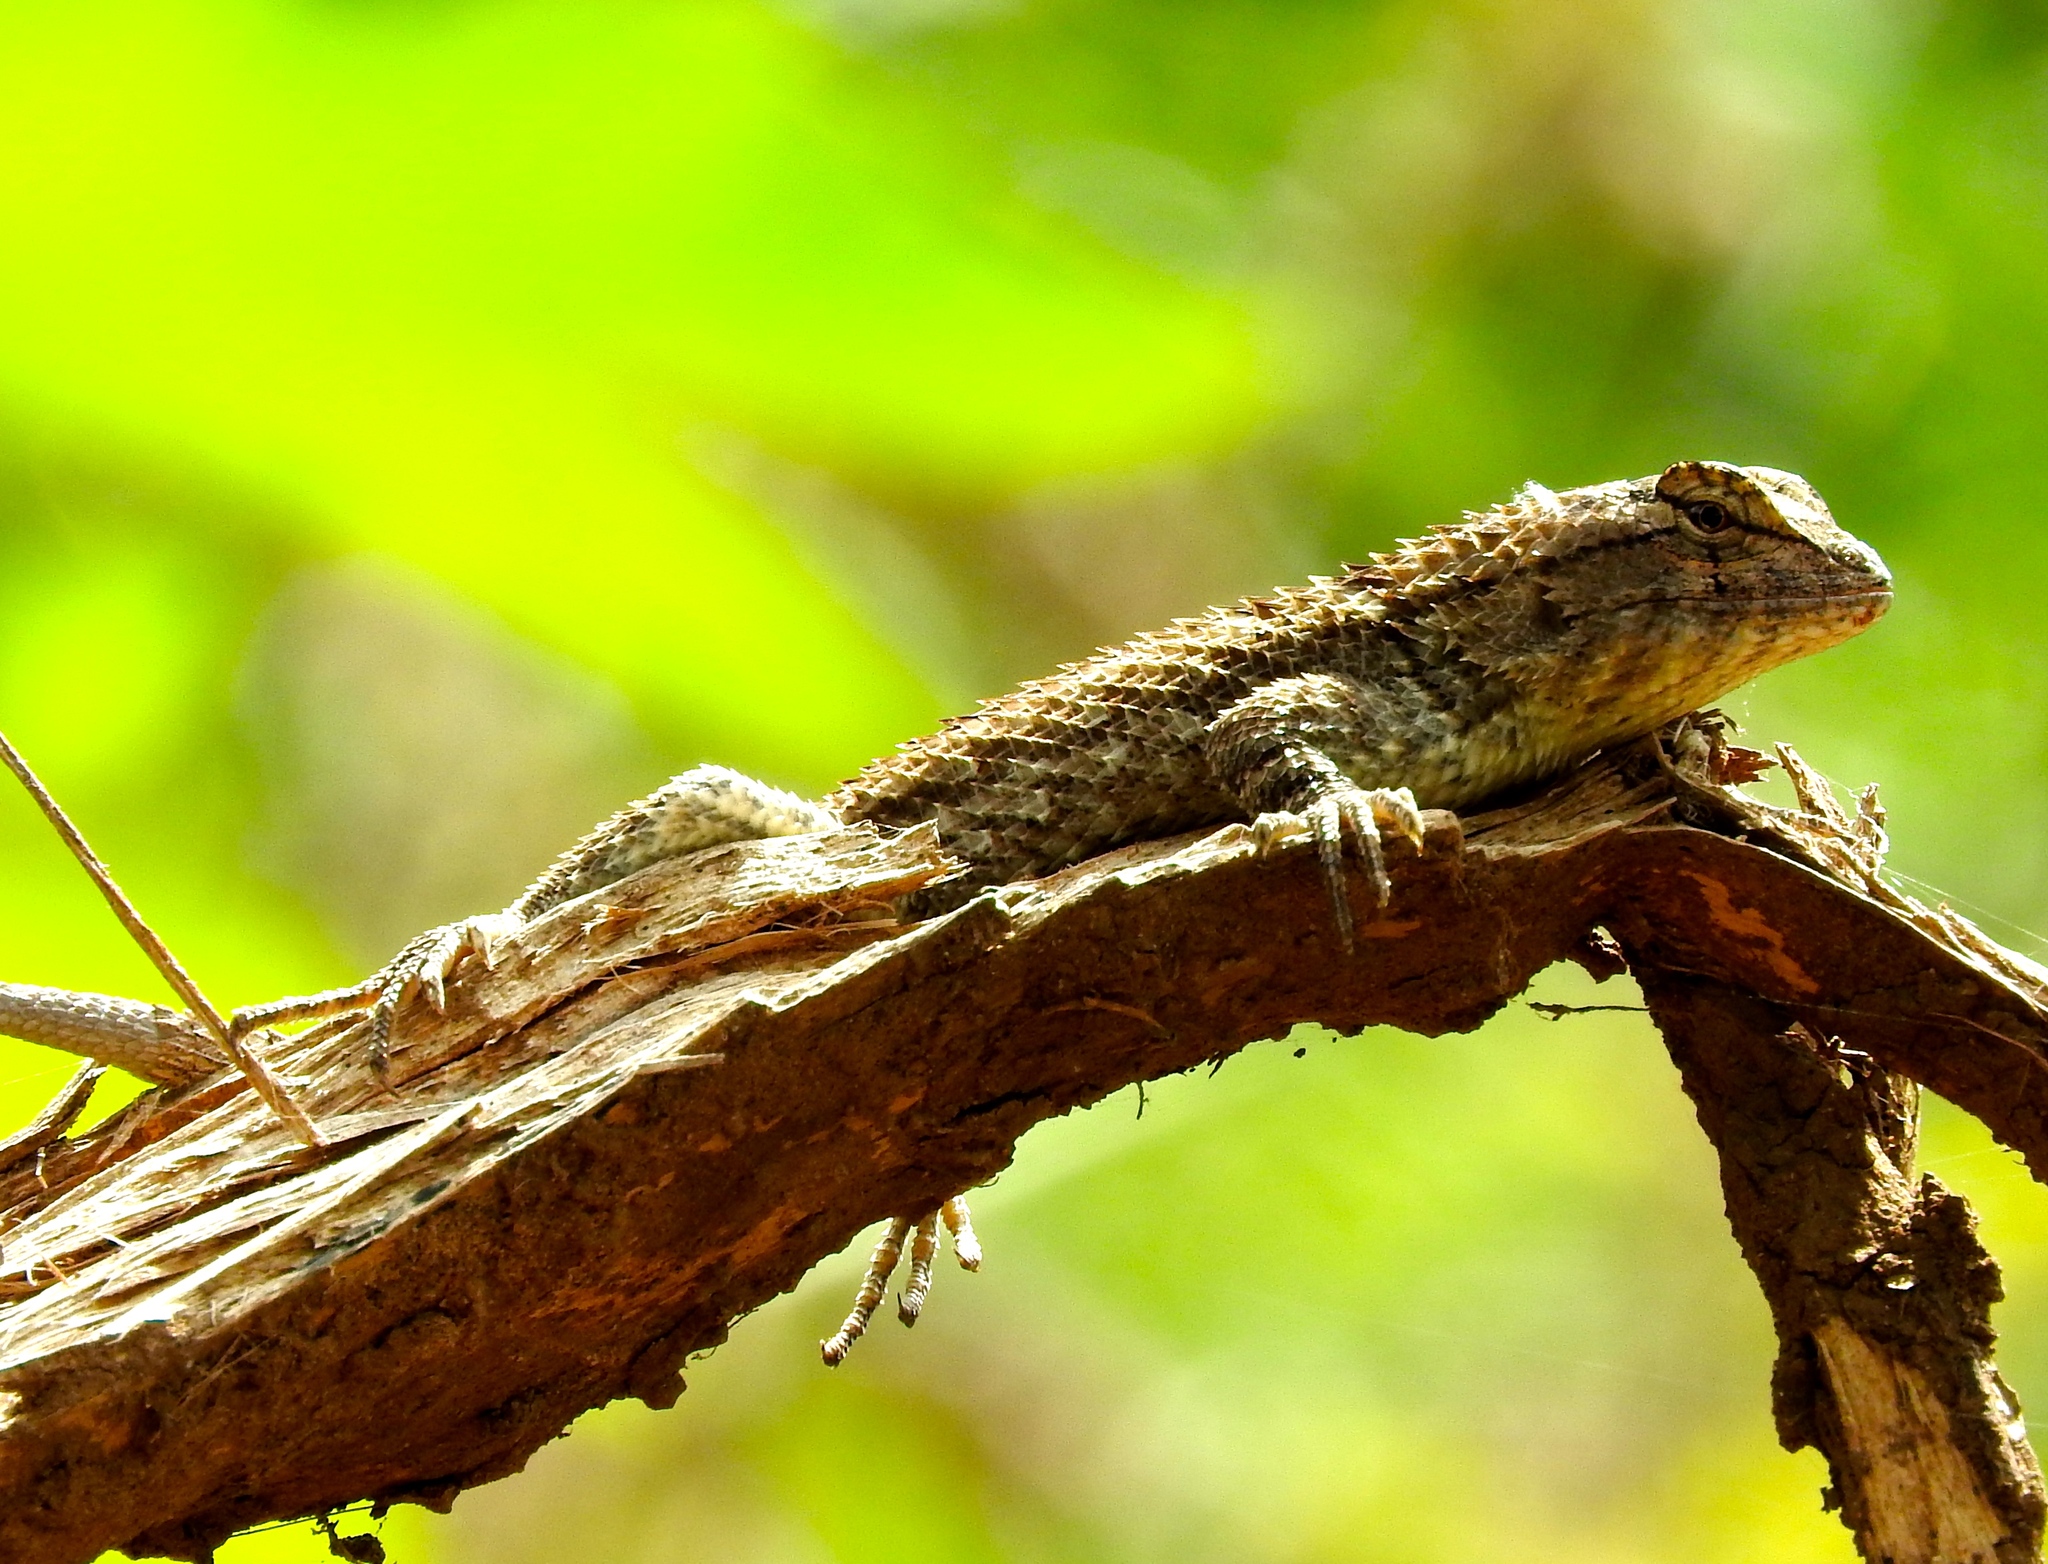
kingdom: Animalia
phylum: Chordata
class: Squamata
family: Phrynosomatidae
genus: Sceloporus
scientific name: Sceloporus clarkii
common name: Clark's spiny lizard
